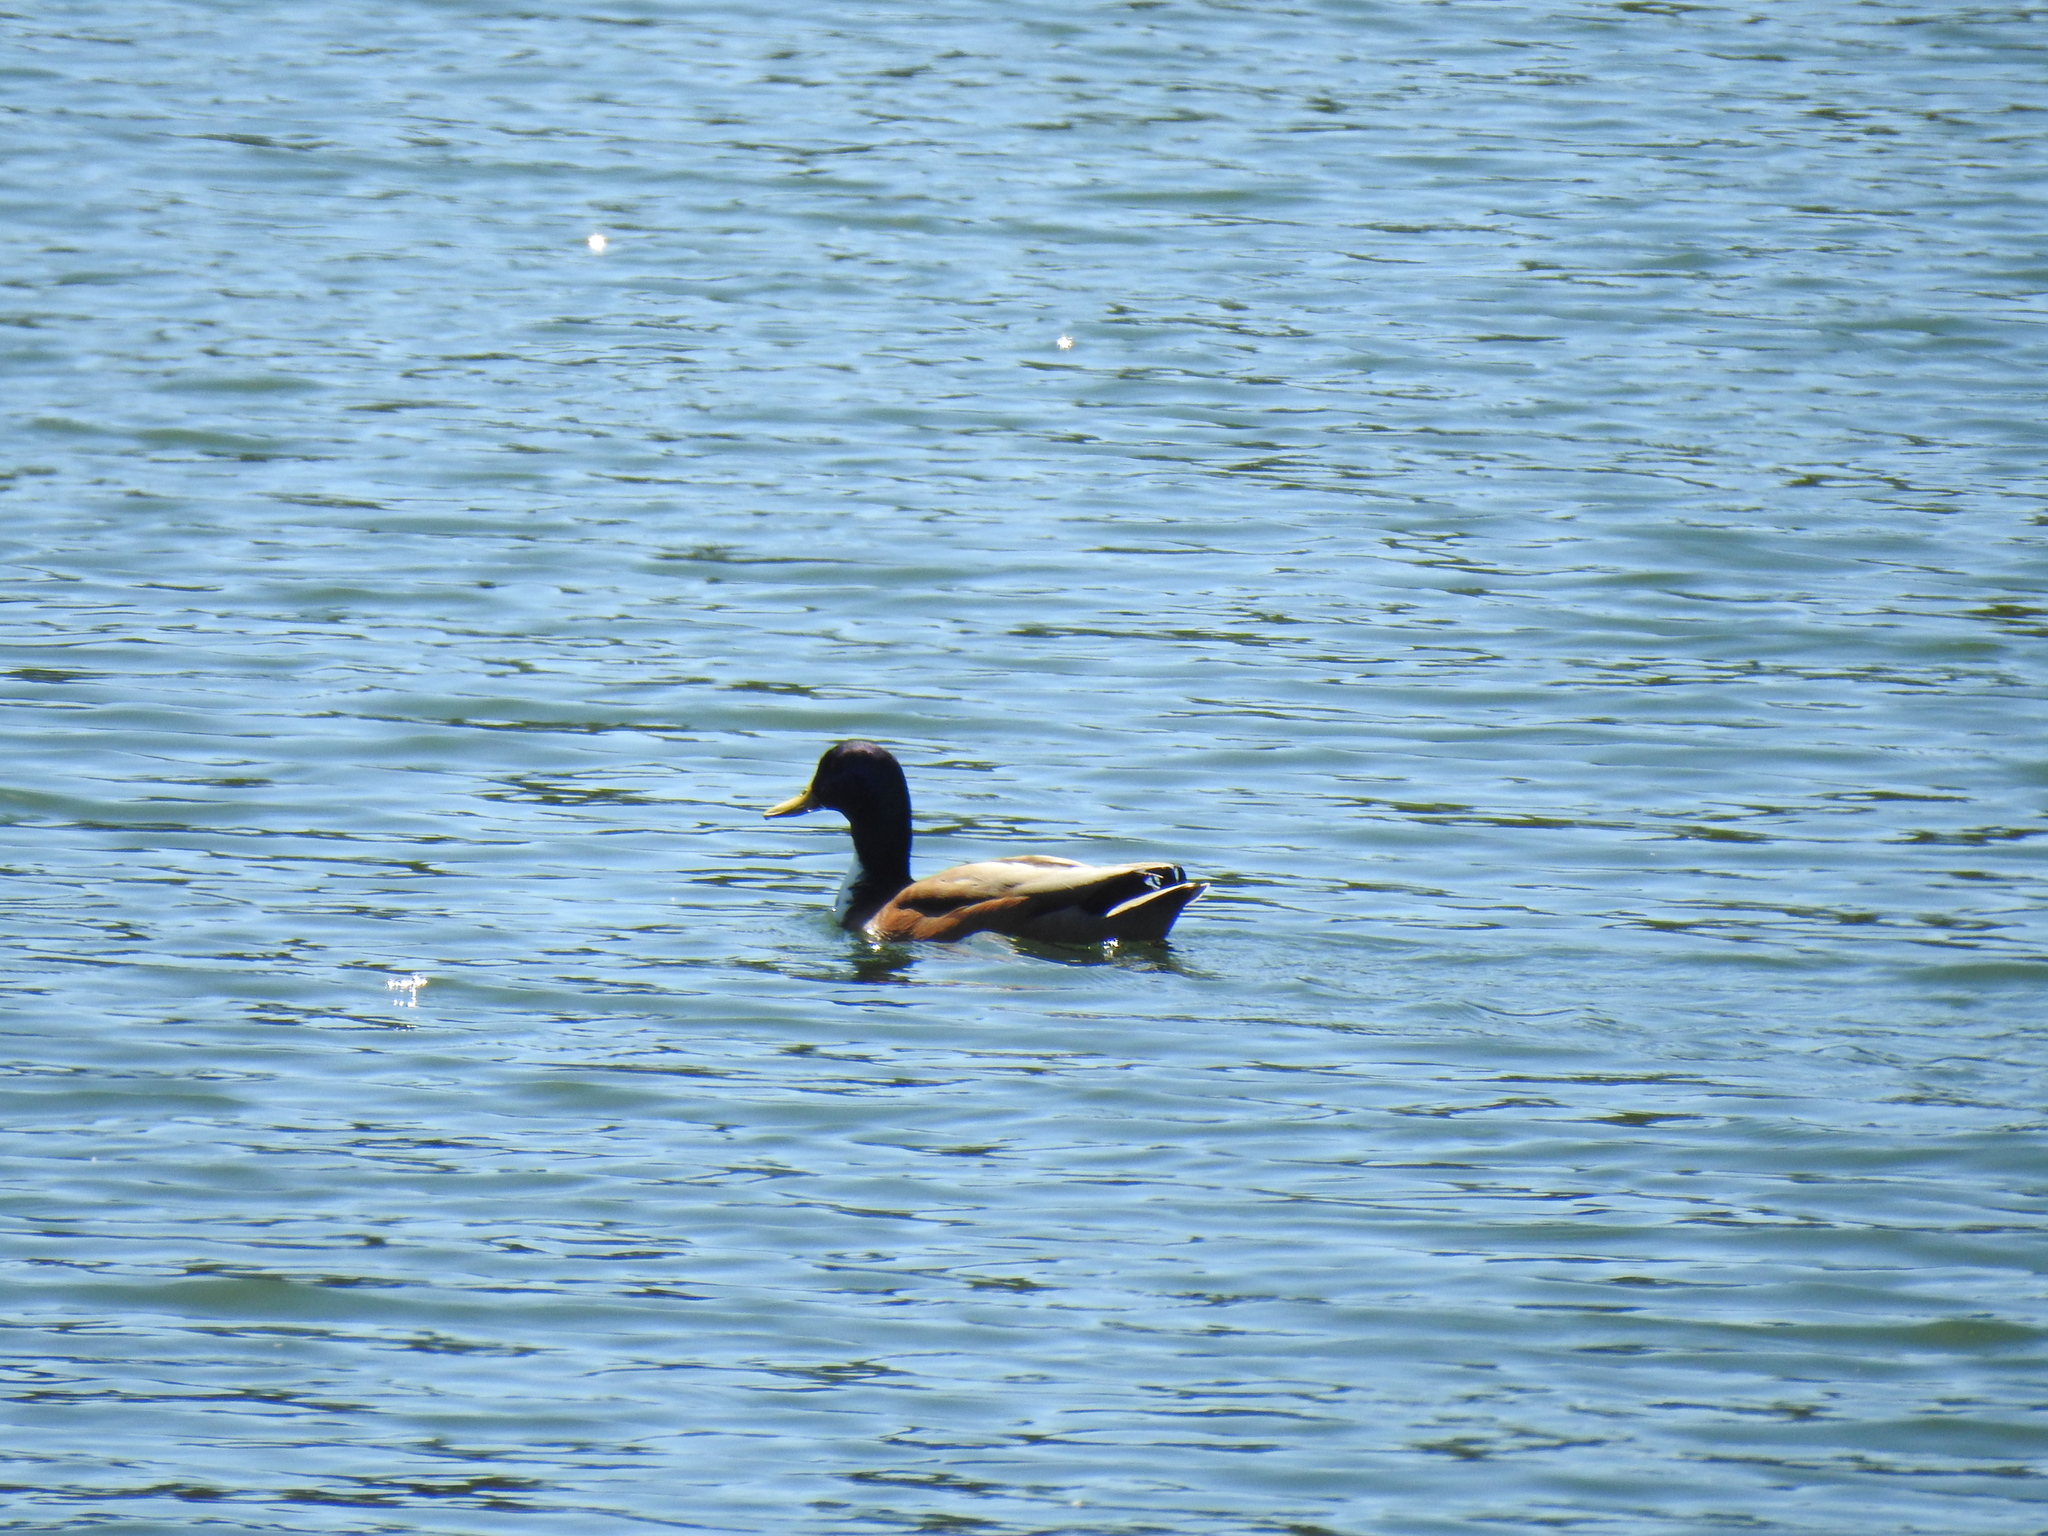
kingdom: Animalia
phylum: Chordata
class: Aves
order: Anseriformes
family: Anatidae
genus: Anas
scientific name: Anas platyrhynchos
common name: Mallard
